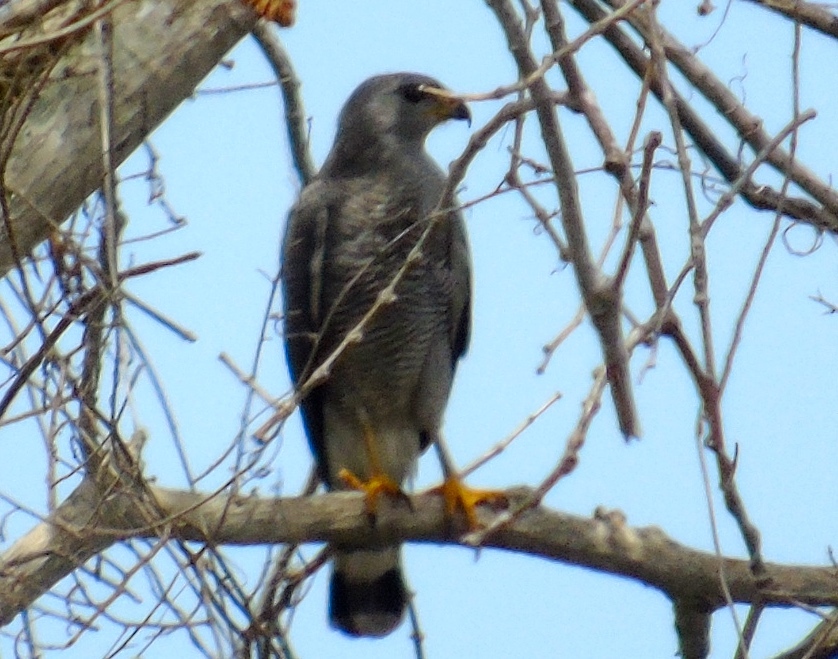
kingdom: Animalia
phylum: Chordata
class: Aves
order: Accipitriformes
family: Accipitridae
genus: Buteo
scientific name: Buteo nitidus
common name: Grey-lined hawk
